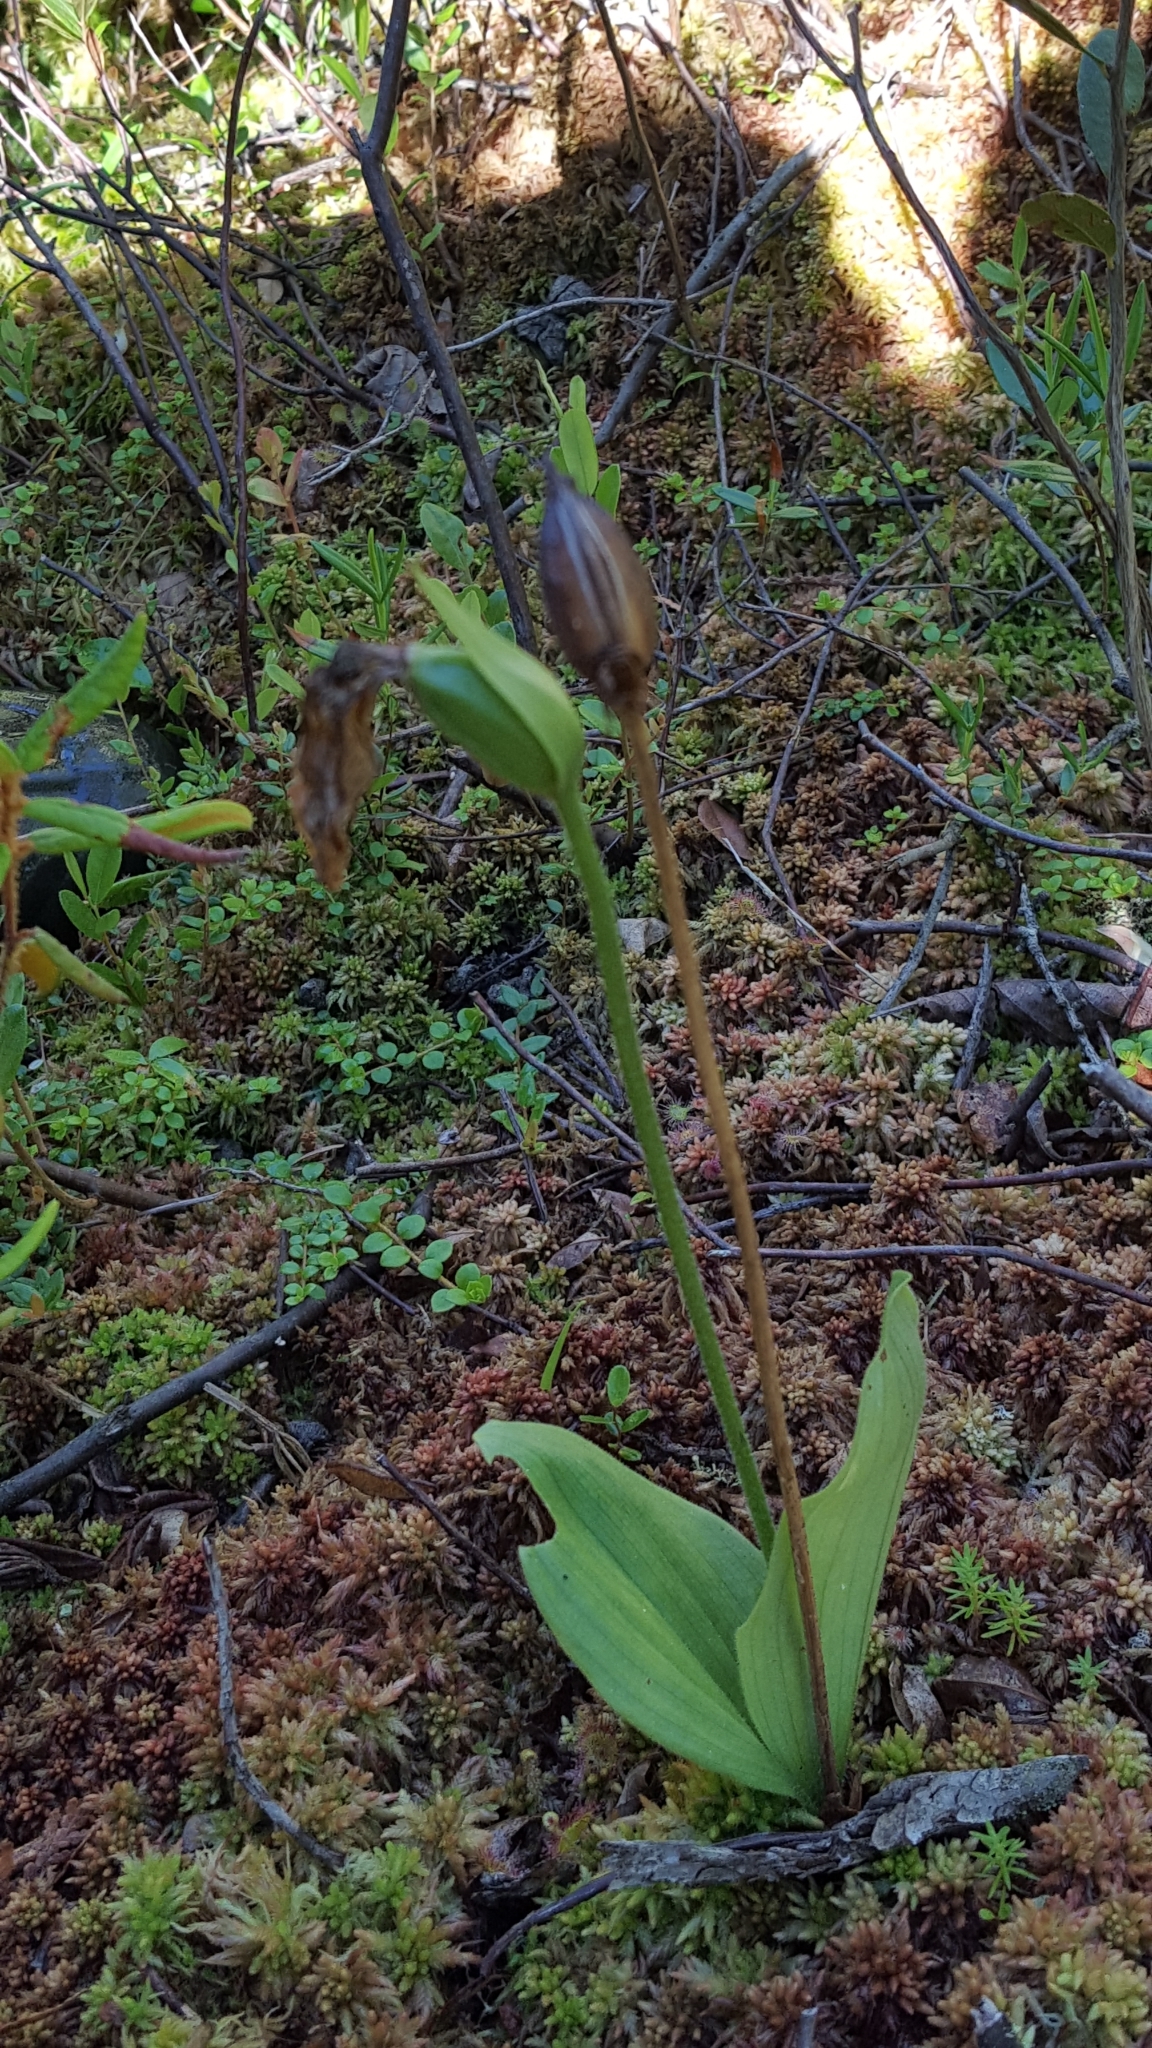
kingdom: Plantae
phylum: Tracheophyta
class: Liliopsida
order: Asparagales
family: Orchidaceae
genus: Cypripedium
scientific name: Cypripedium acaule
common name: Pink lady's-slipper
